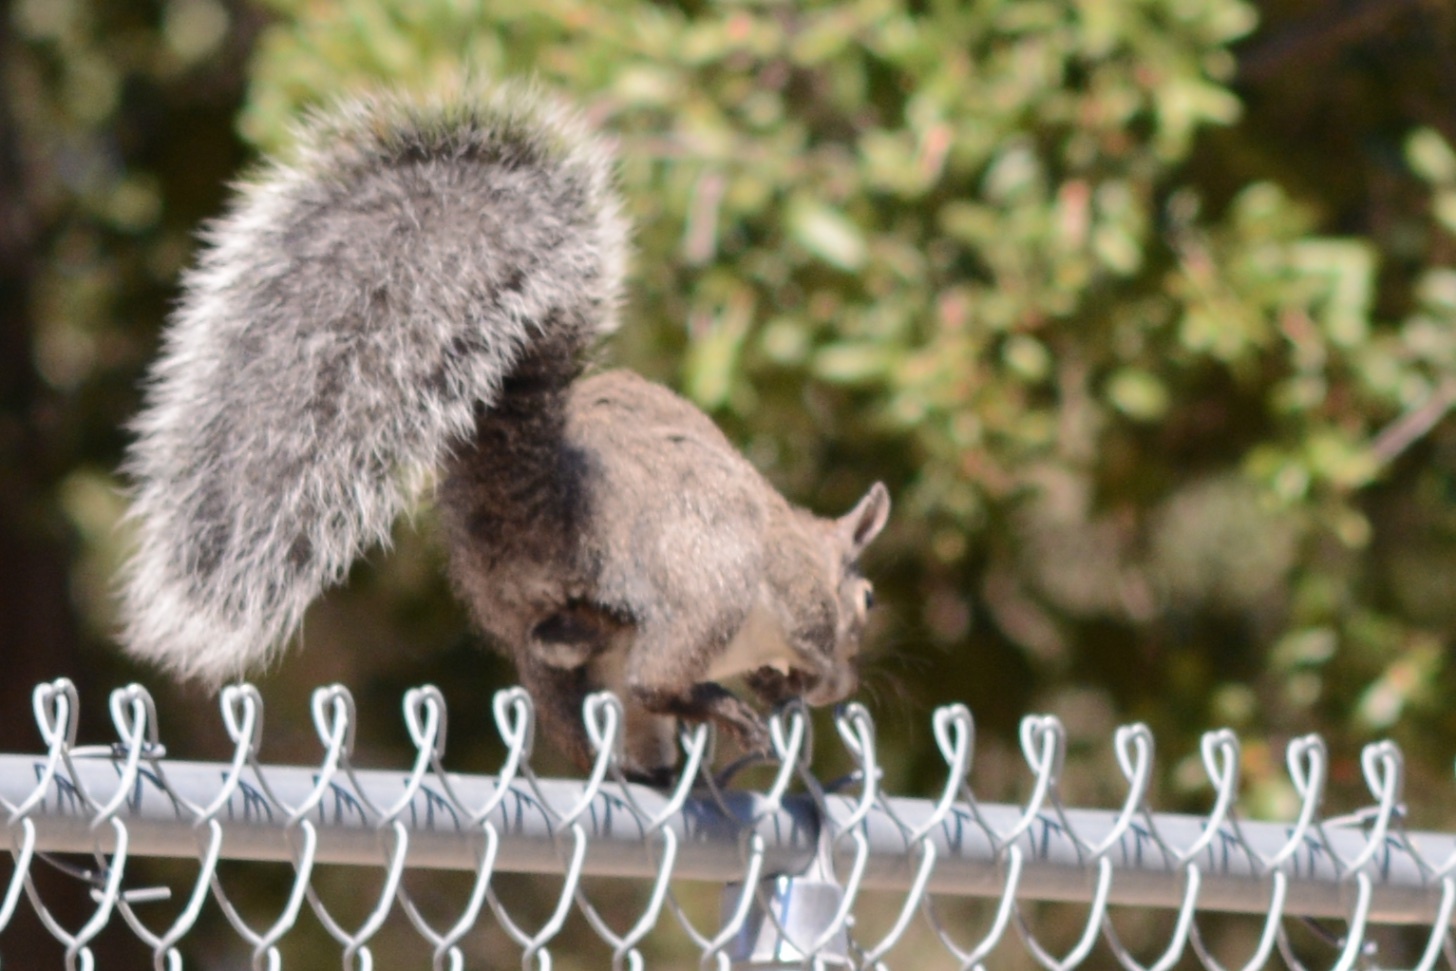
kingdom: Animalia
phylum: Chordata
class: Mammalia
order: Rodentia
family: Sciuridae
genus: Sciurus
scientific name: Sciurus griseus
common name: Western gray squirrel
